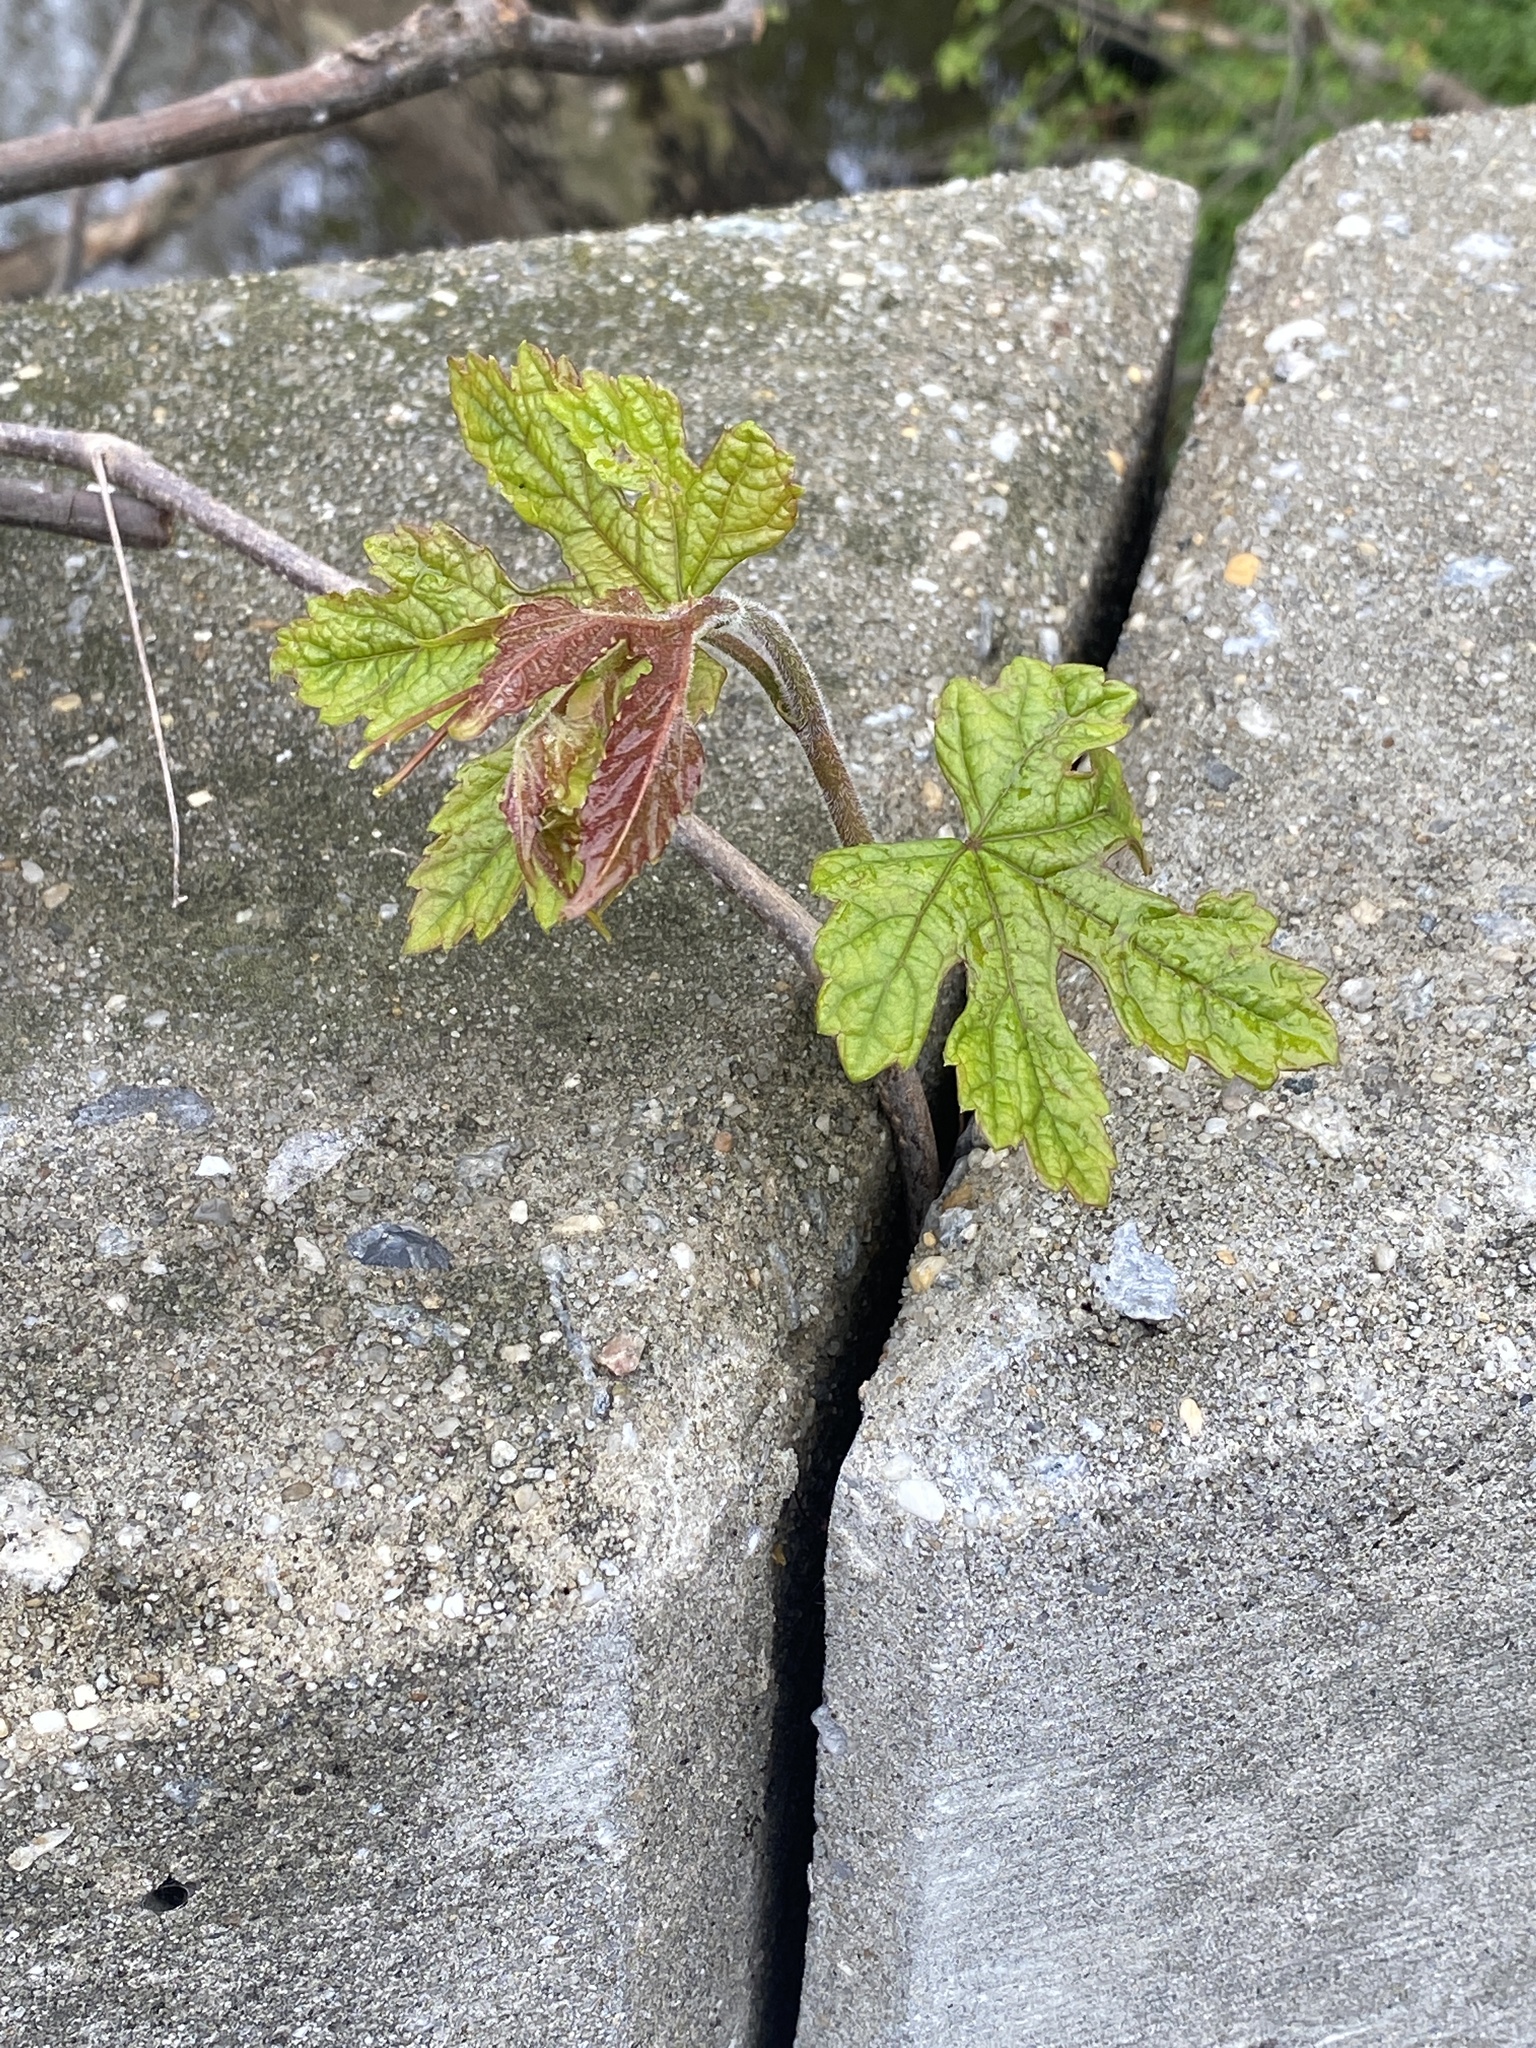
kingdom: Plantae
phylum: Tracheophyta
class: Magnoliopsida
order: Vitales
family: Vitaceae
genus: Ampelopsis
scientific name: Ampelopsis glandulosa
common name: Amur peppervine
